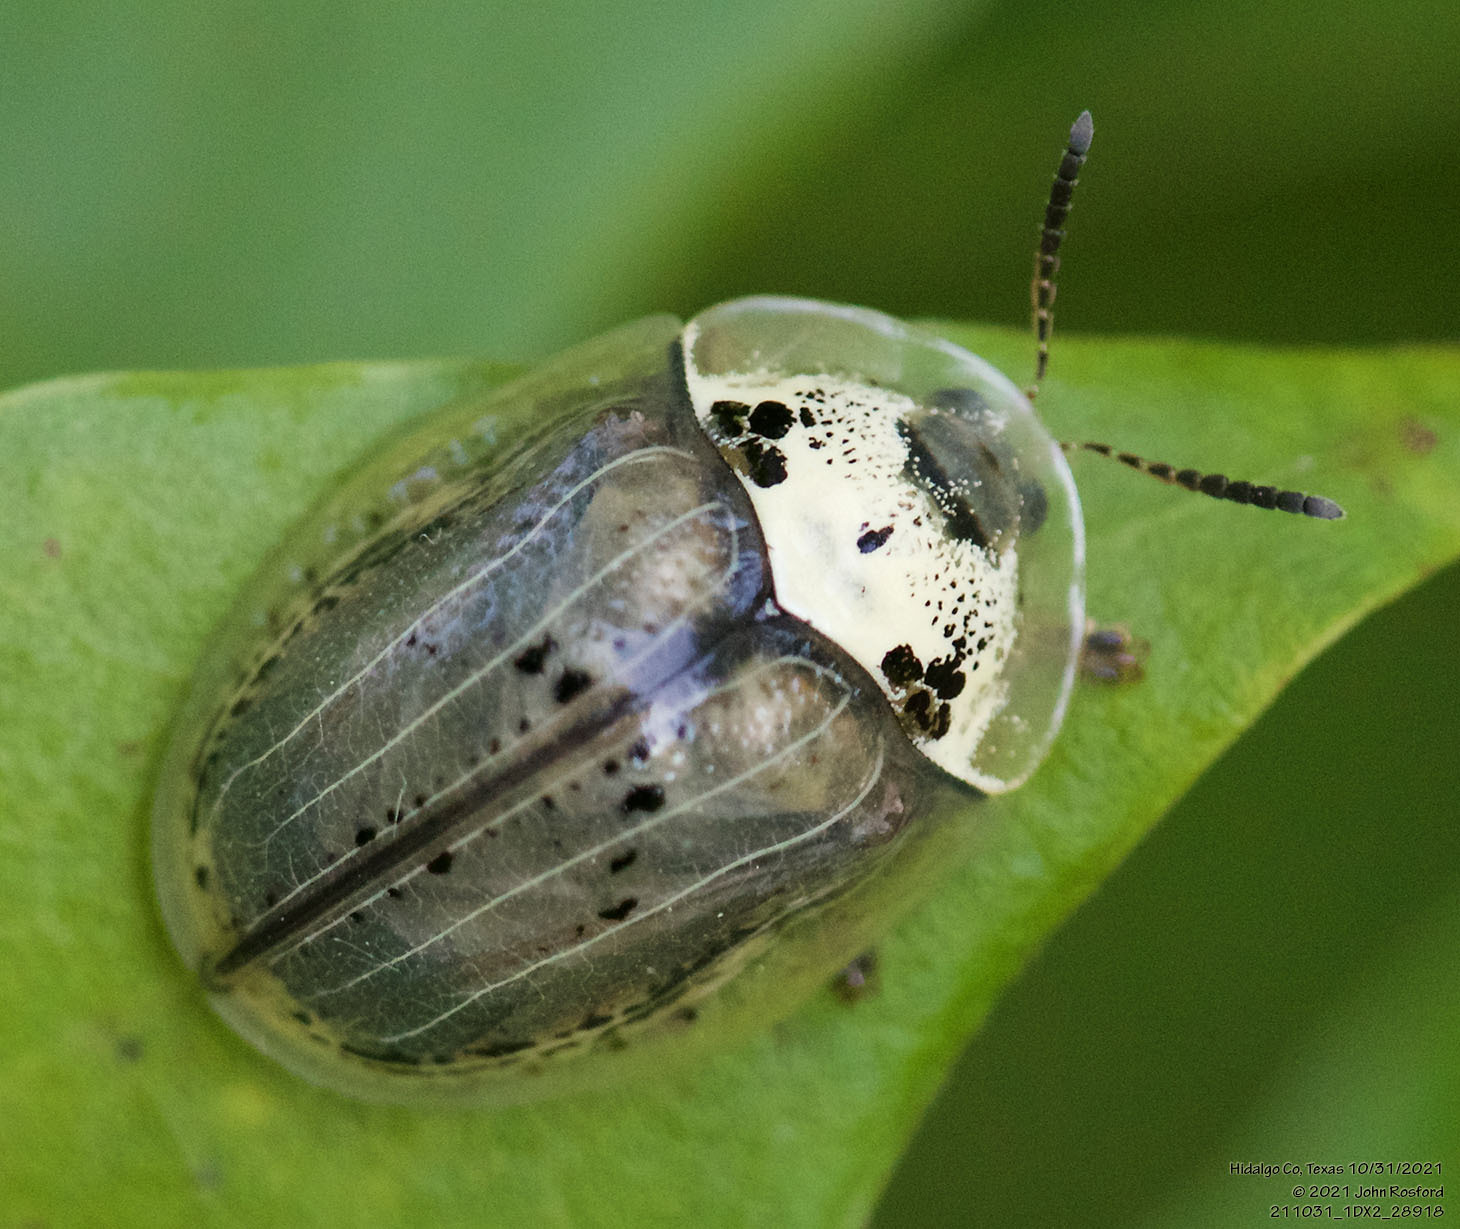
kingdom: Animalia
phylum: Arthropoda
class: Insecta
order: Coleoptera
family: Chrysomelidae
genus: Physonota
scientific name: Physonota alutacea
